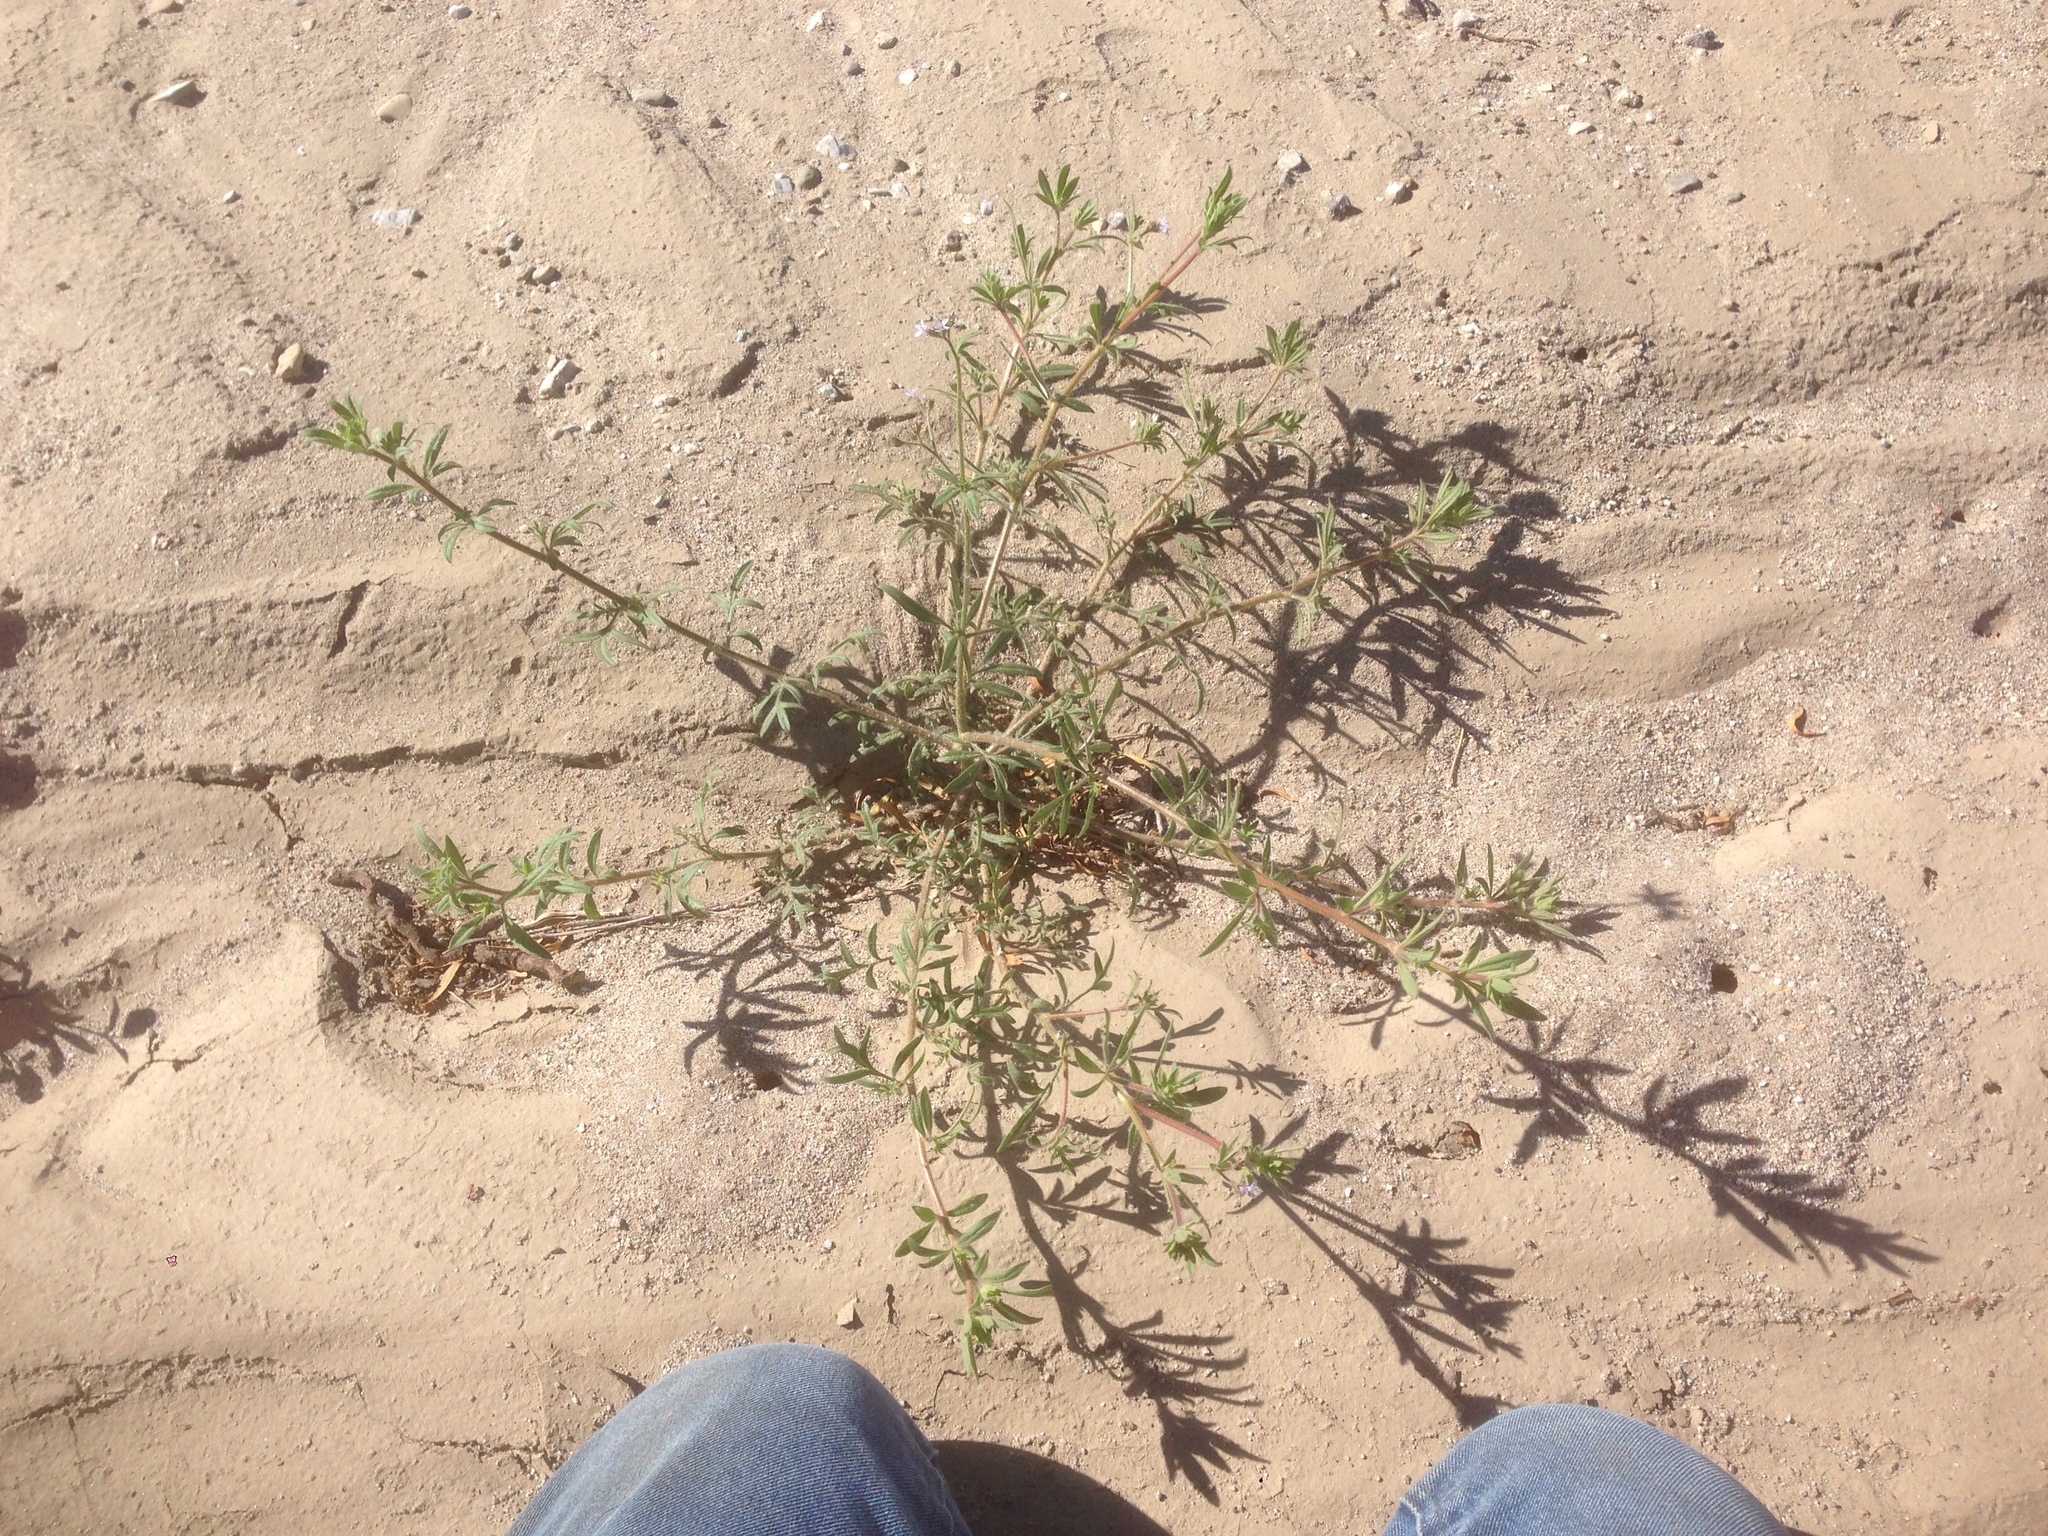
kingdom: Plantae
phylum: Tracheophyta
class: Magnoliopsida
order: Ericales
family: Polemoniaceae
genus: Allophyllum
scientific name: Allophyllum glutinosum
